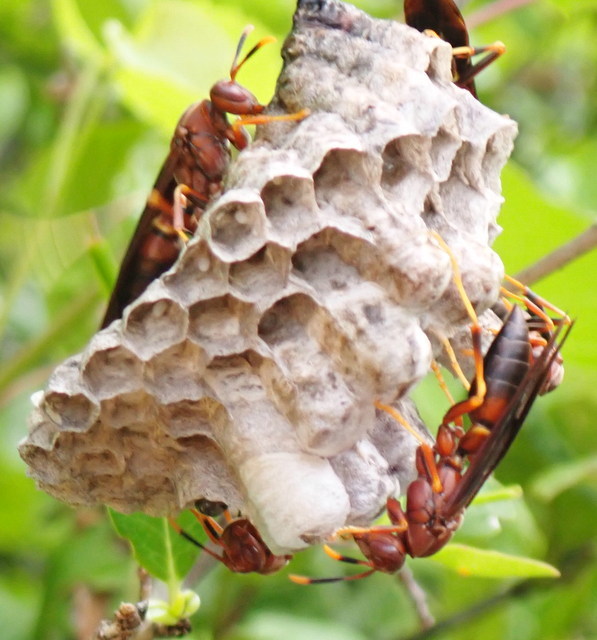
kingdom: Animalia
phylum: Arthropoda
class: Insecta
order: Hymenoptera
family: Eumenidae
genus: Polistes
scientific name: Polistes annularis
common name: Ringed paper wasp
